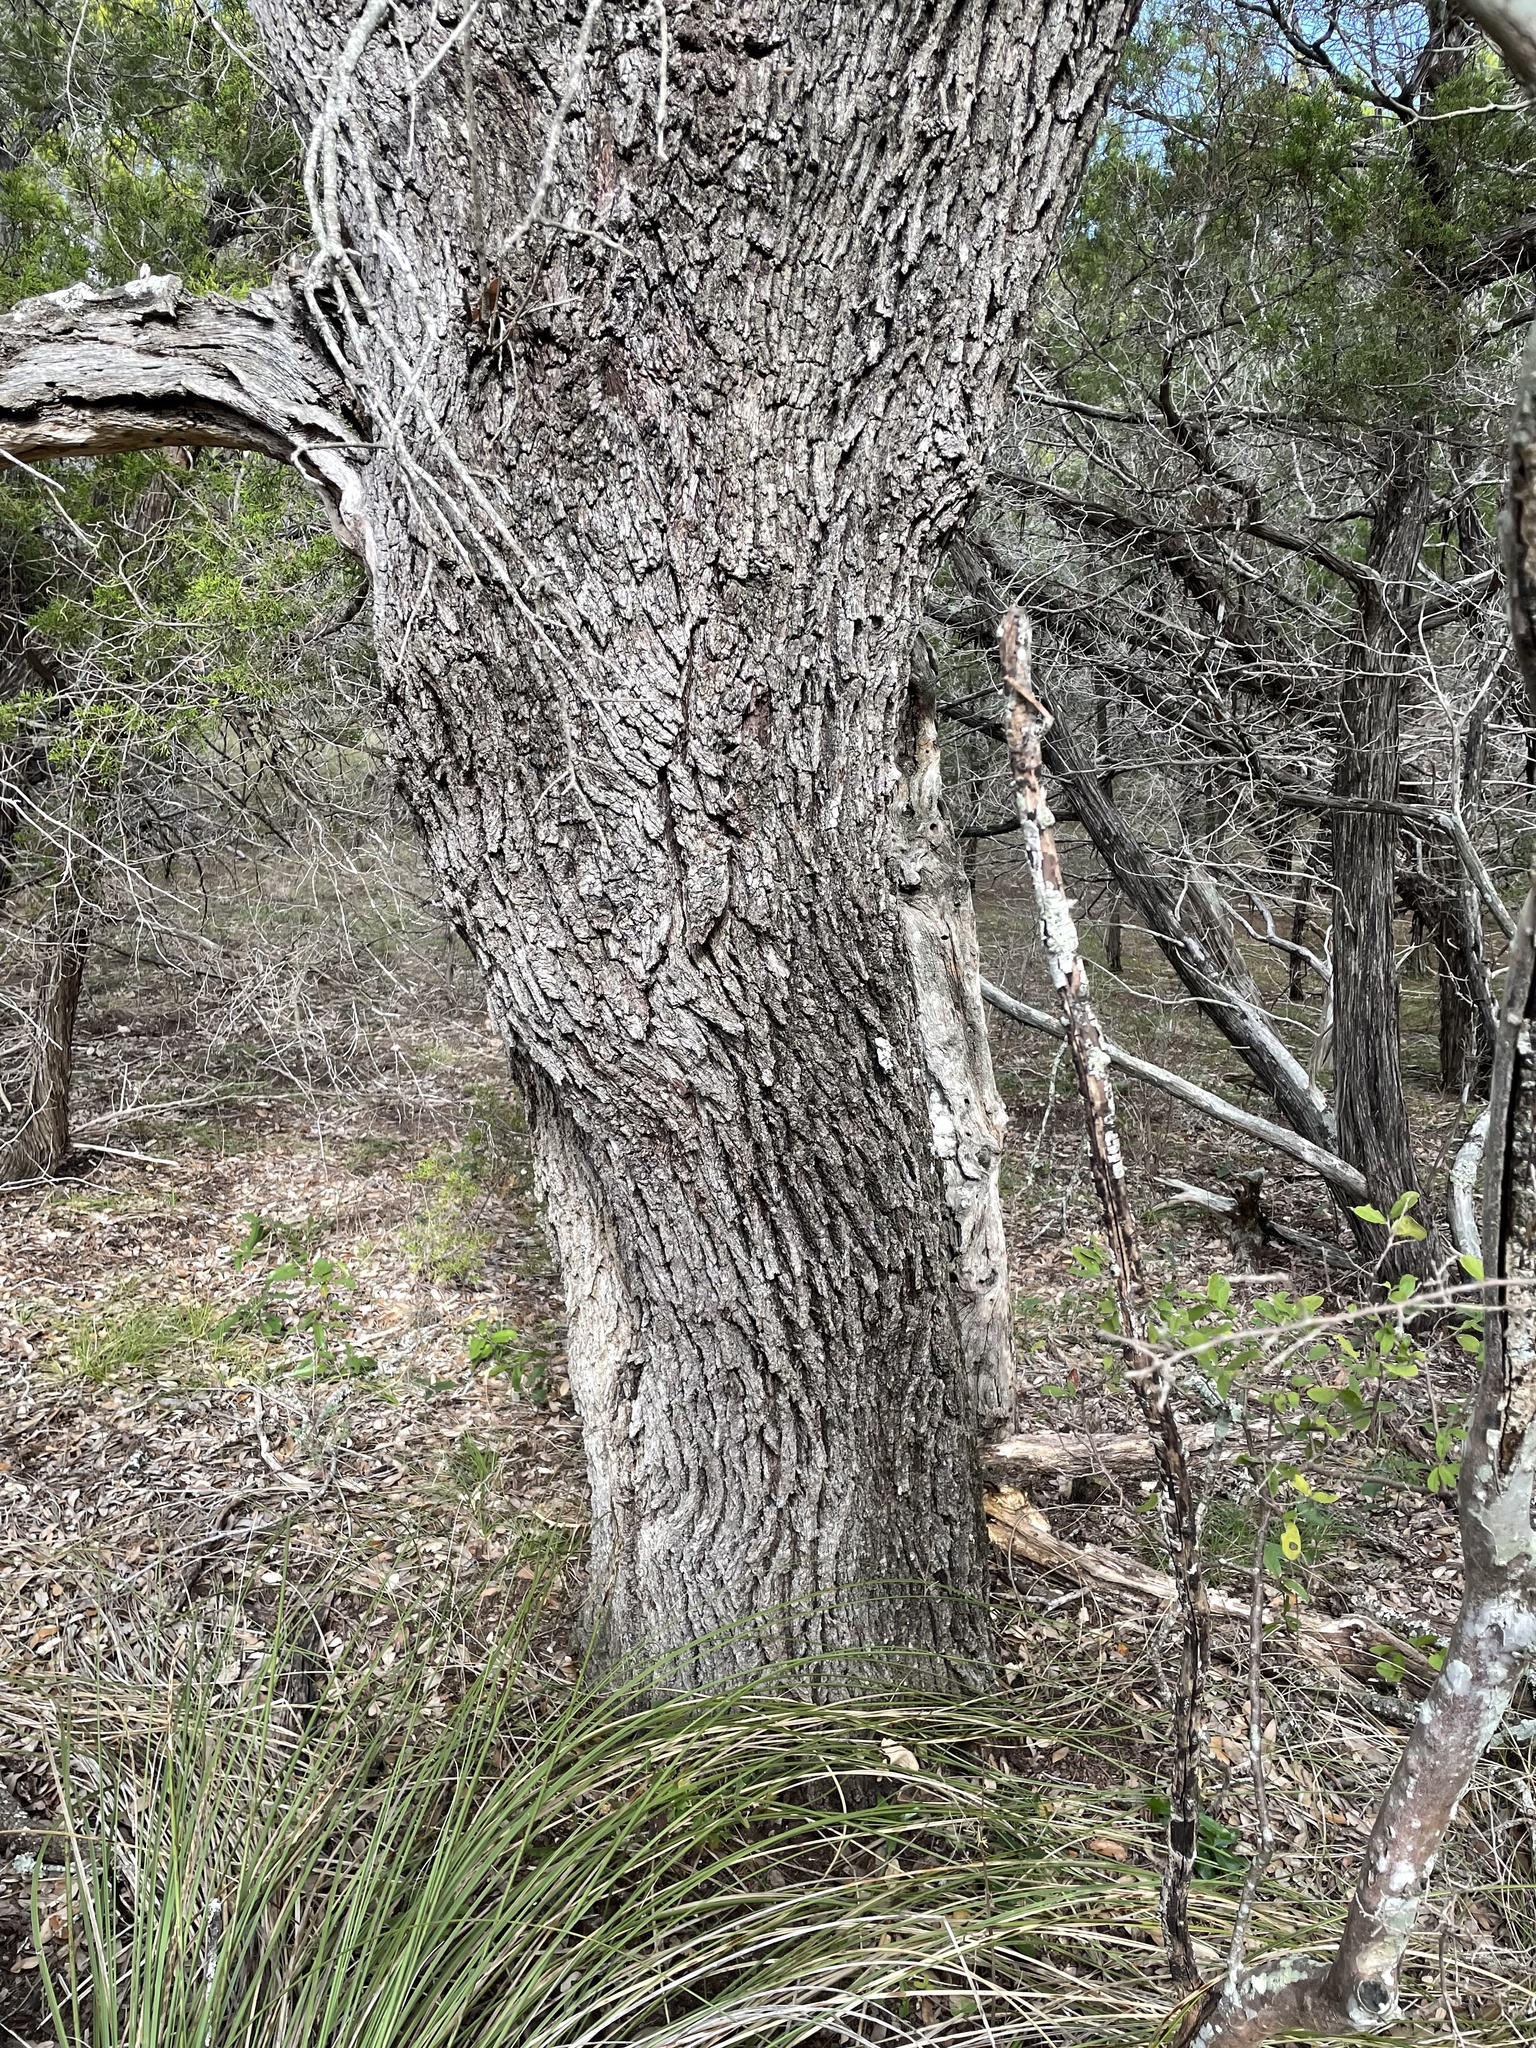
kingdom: Plantae
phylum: Tracheophyta
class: Magnoliopsida
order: Fagales
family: Fagaceae
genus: Quercus
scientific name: Quercus fusiformis
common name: Texas live oak
